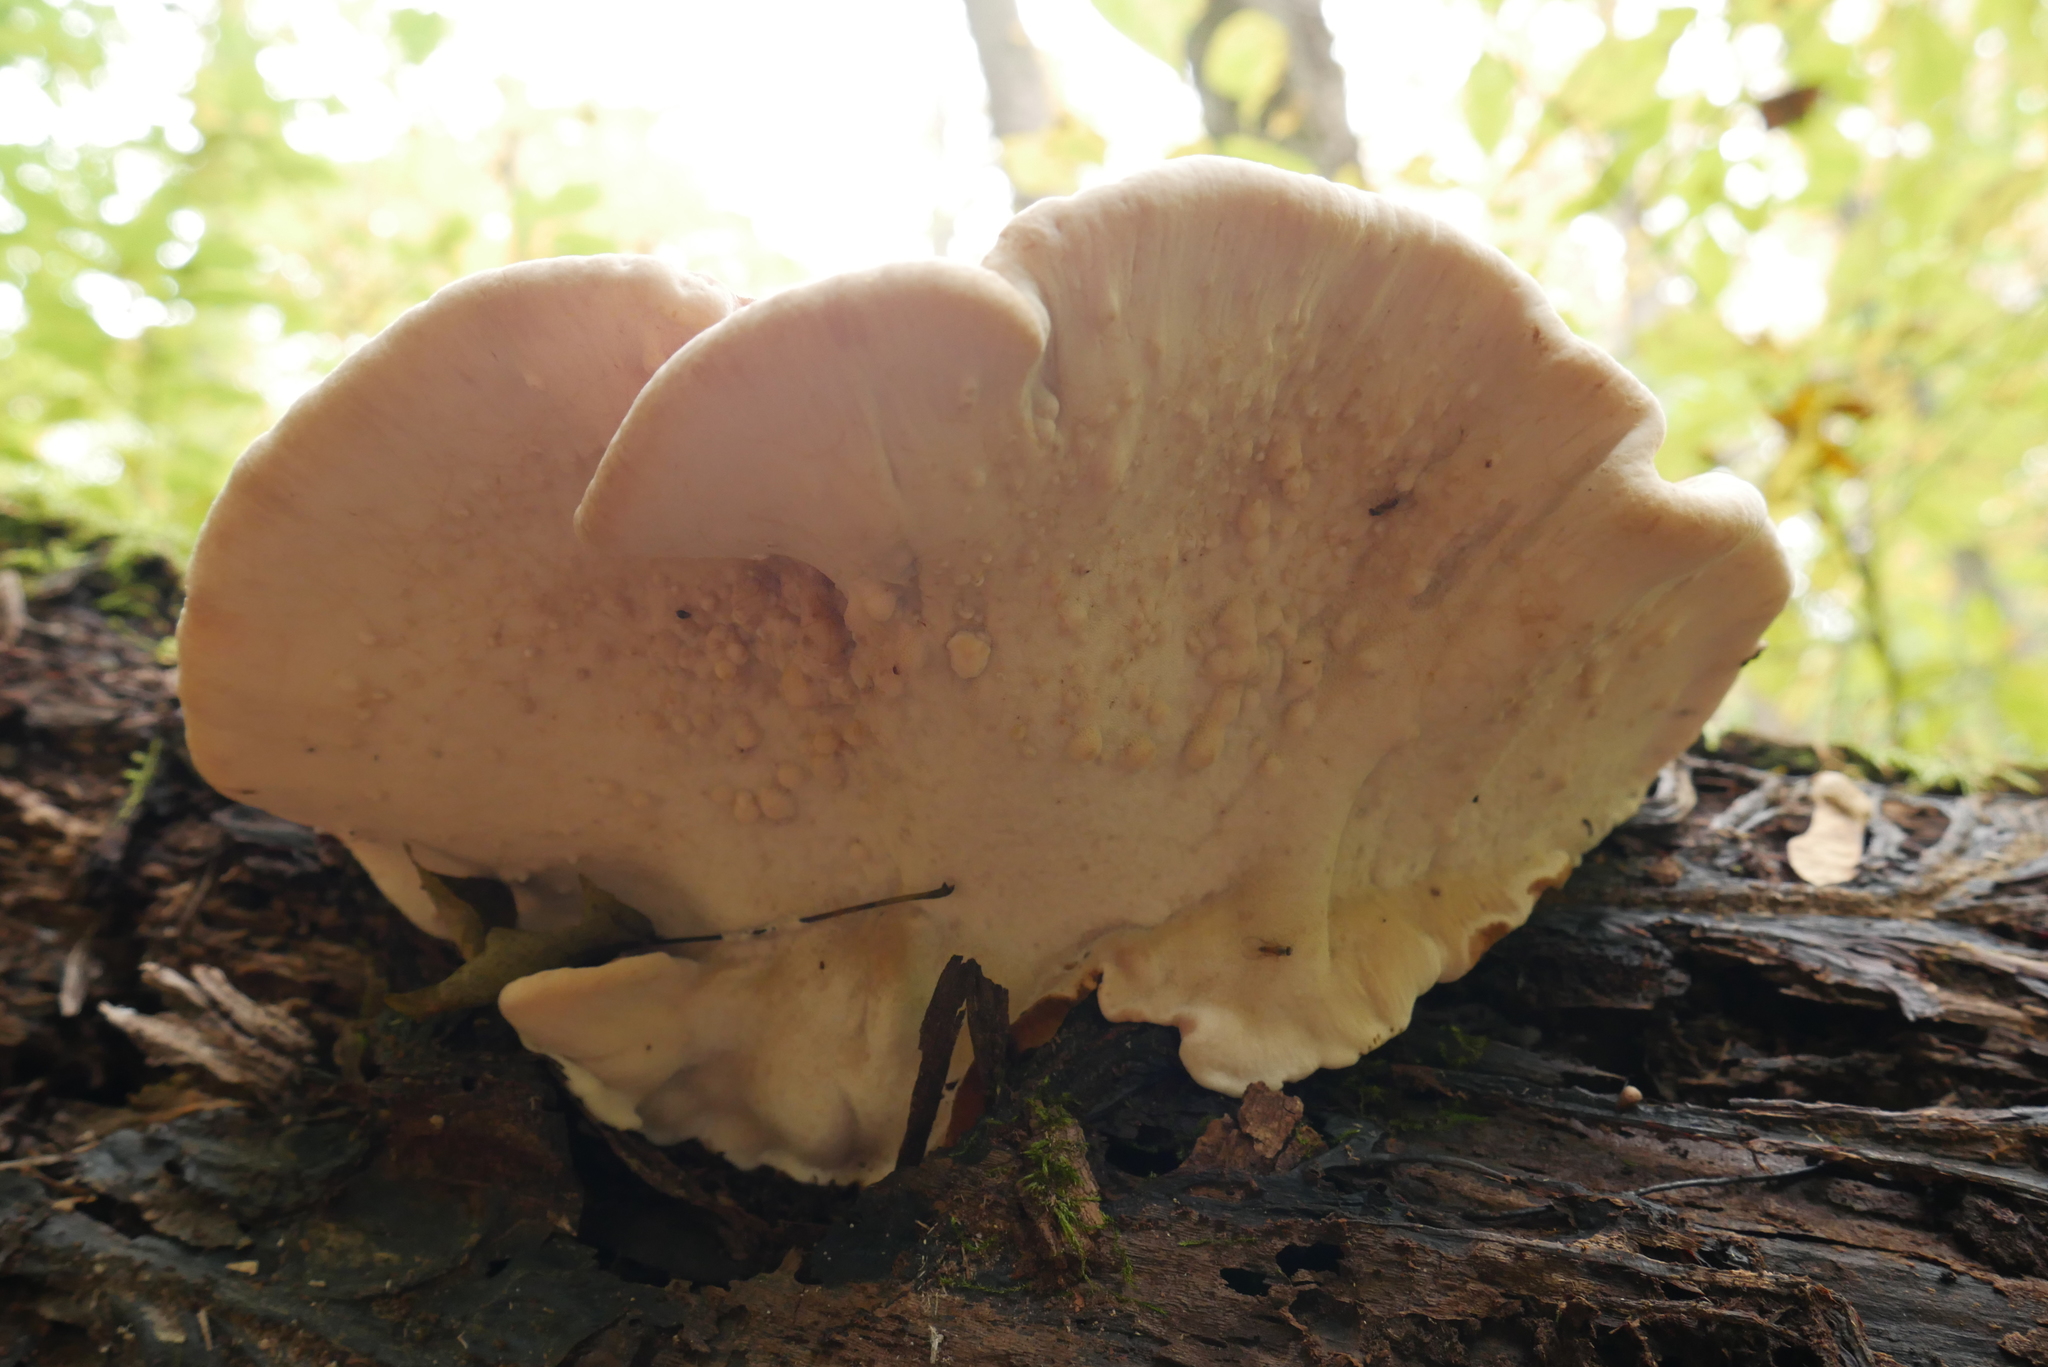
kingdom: Fungi
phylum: Basidiomycota
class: Agaricomycetes
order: Polyporales
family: Ischnodermataceae
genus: Ischnoderma
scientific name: Ischnoderma resinosum
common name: Resinous polypore
